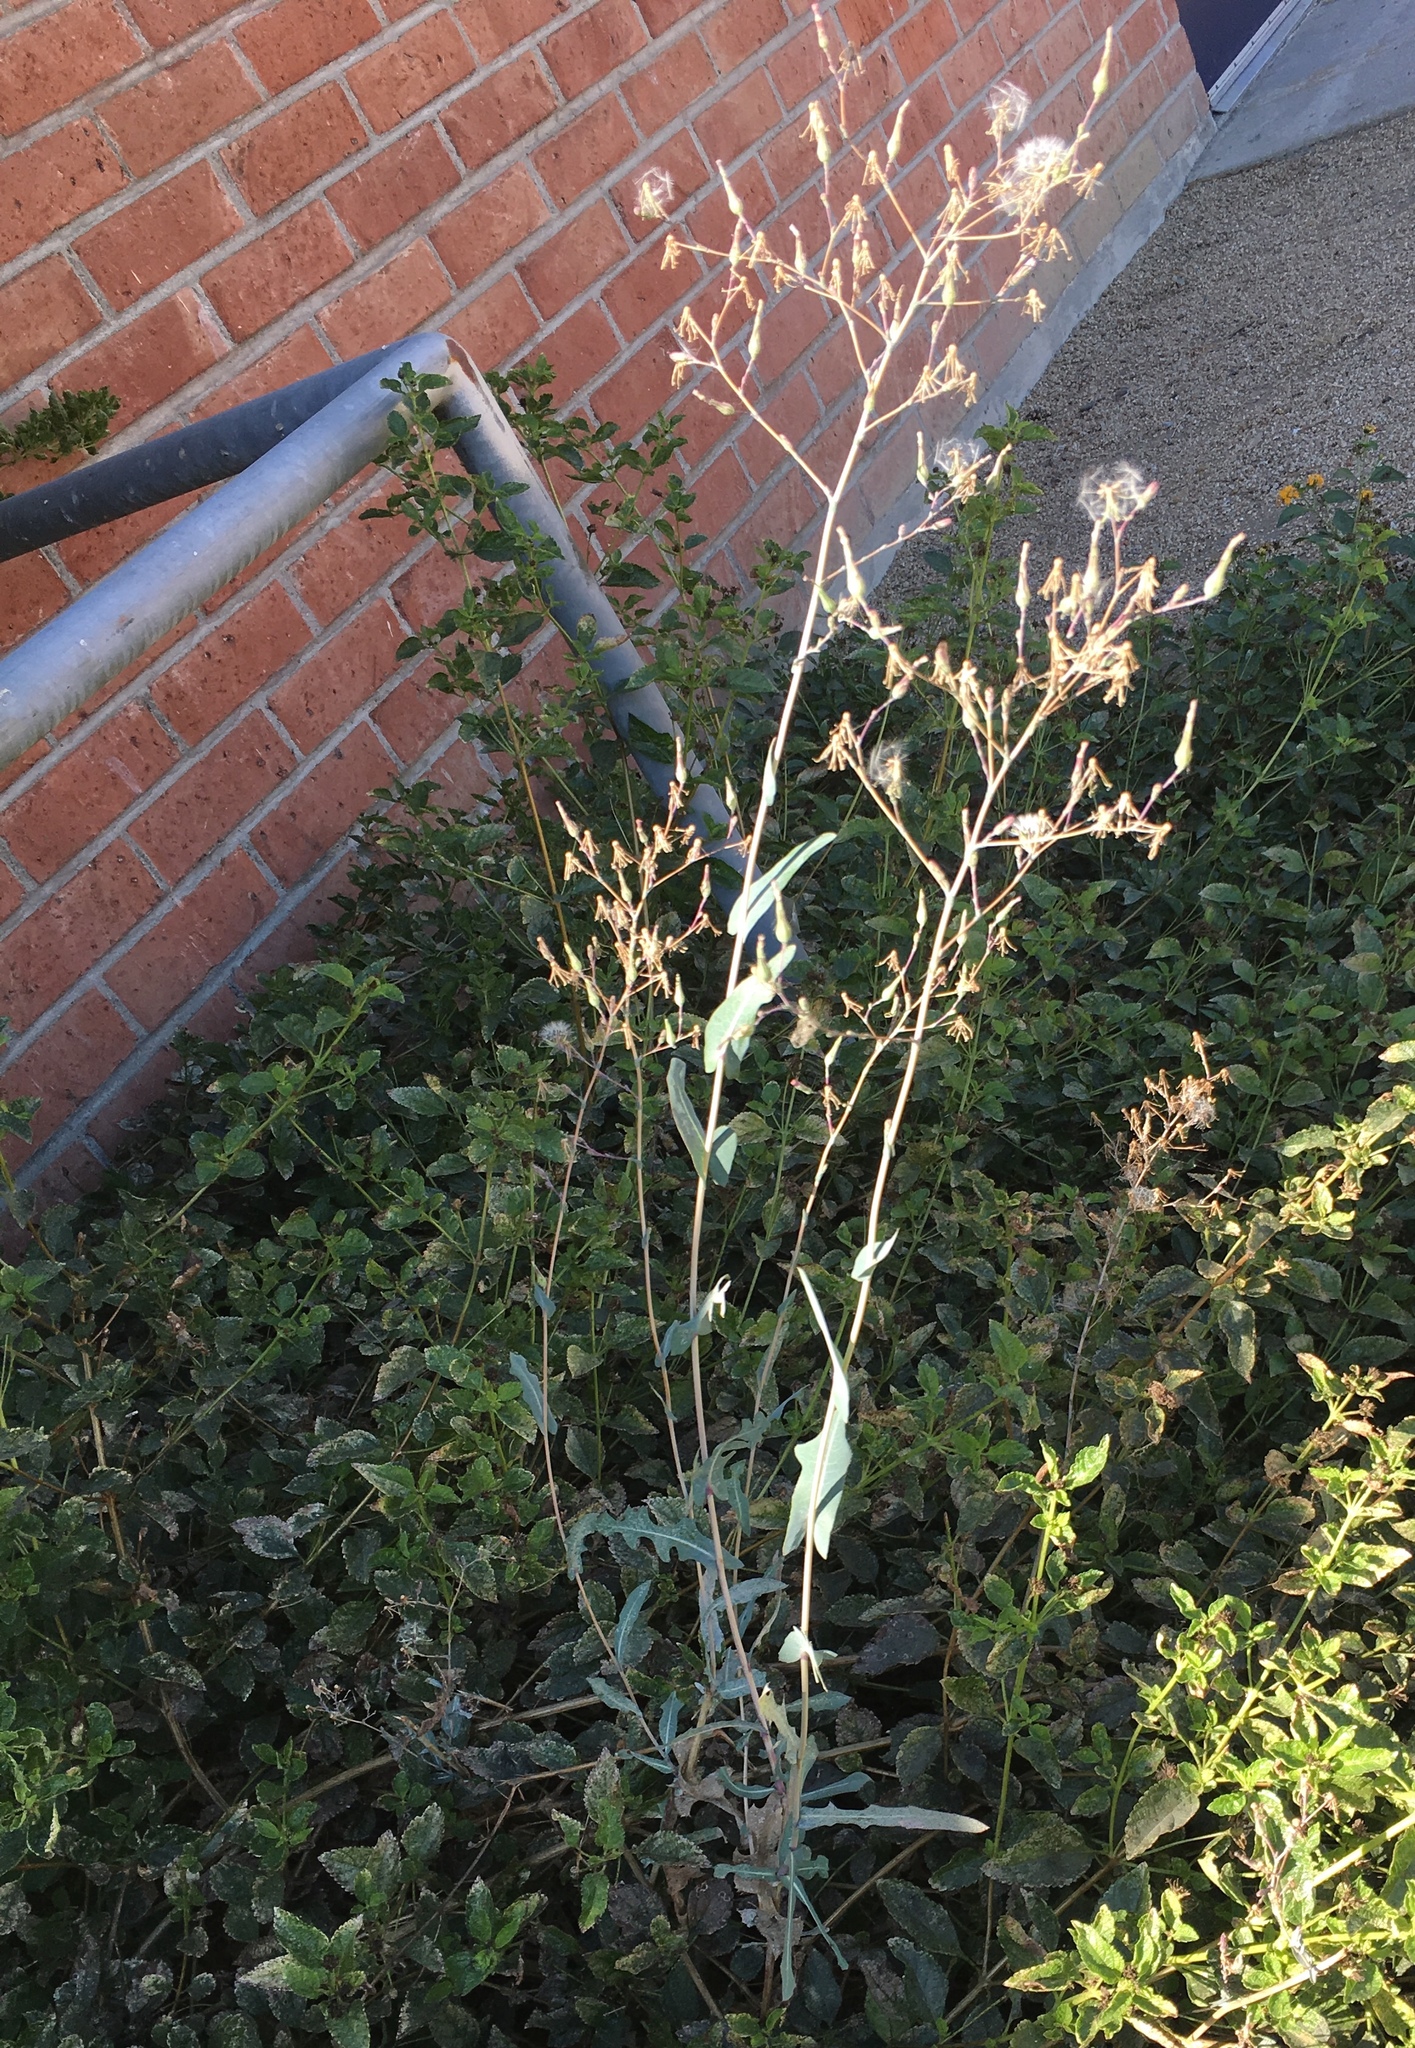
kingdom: Plantae
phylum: Tracheophyta
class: Magnoliopsida
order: Asterales
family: Asteraceae
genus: Lactuca
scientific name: Lactuca serriola
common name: Prickly lettuce
